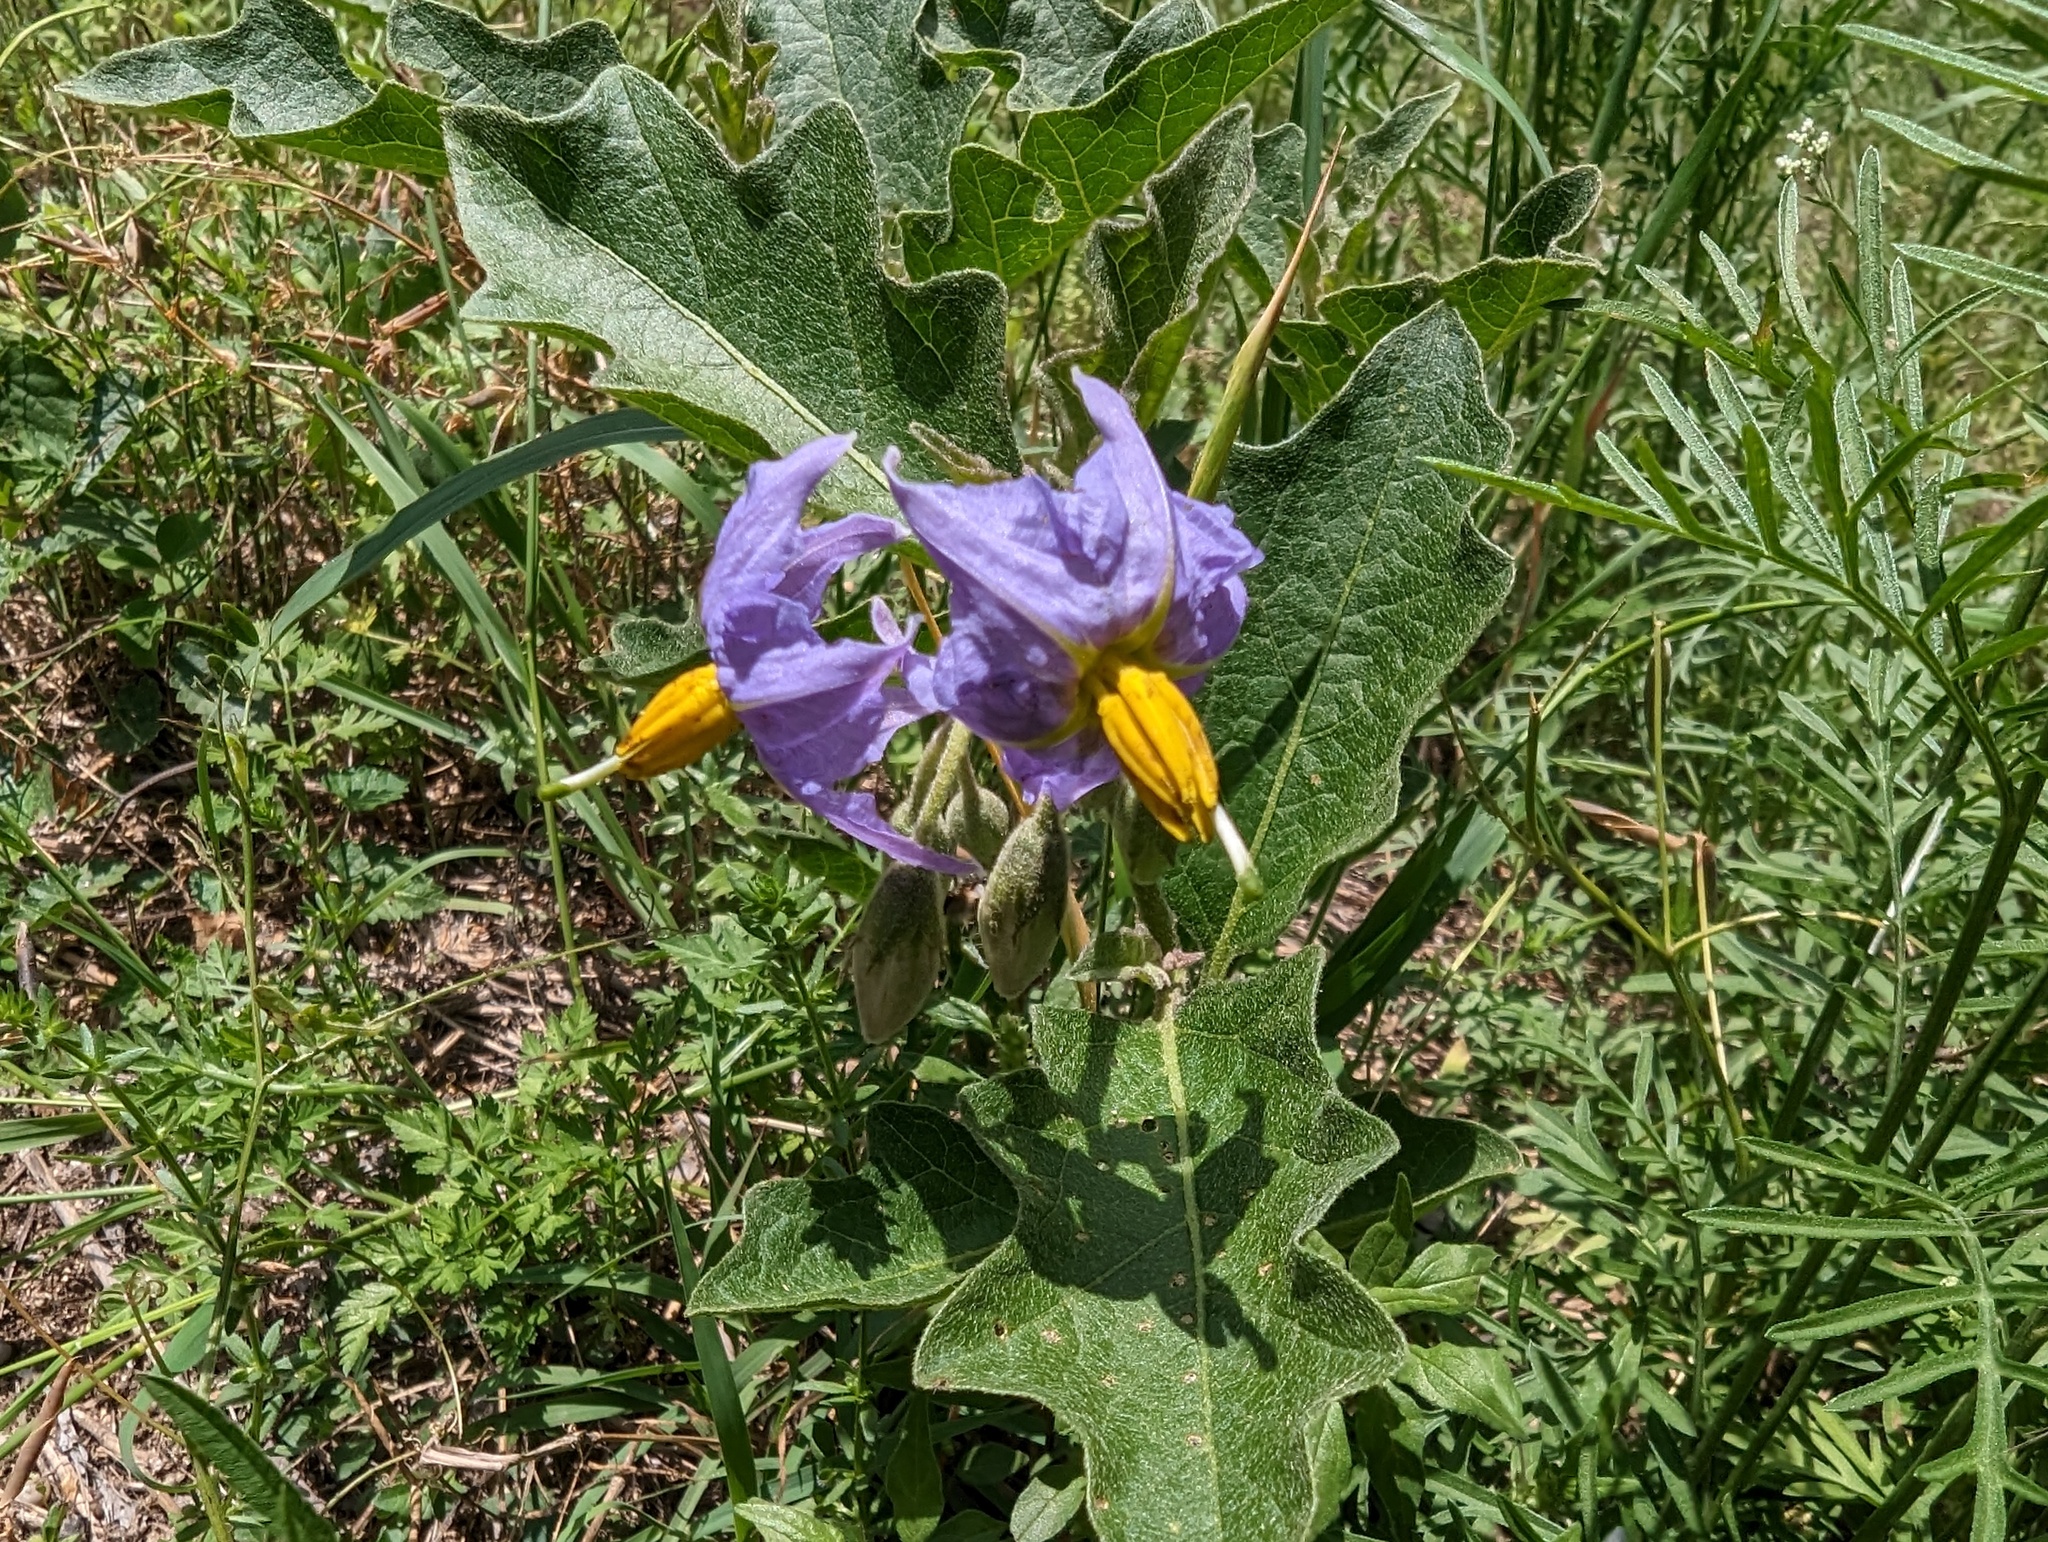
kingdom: Plantae
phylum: Tracheophyta
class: Magnoliopsida
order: Solanales
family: Solanaceae
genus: Solanum
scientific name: Solanum dimidiatum
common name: Carolina horse-nettle
